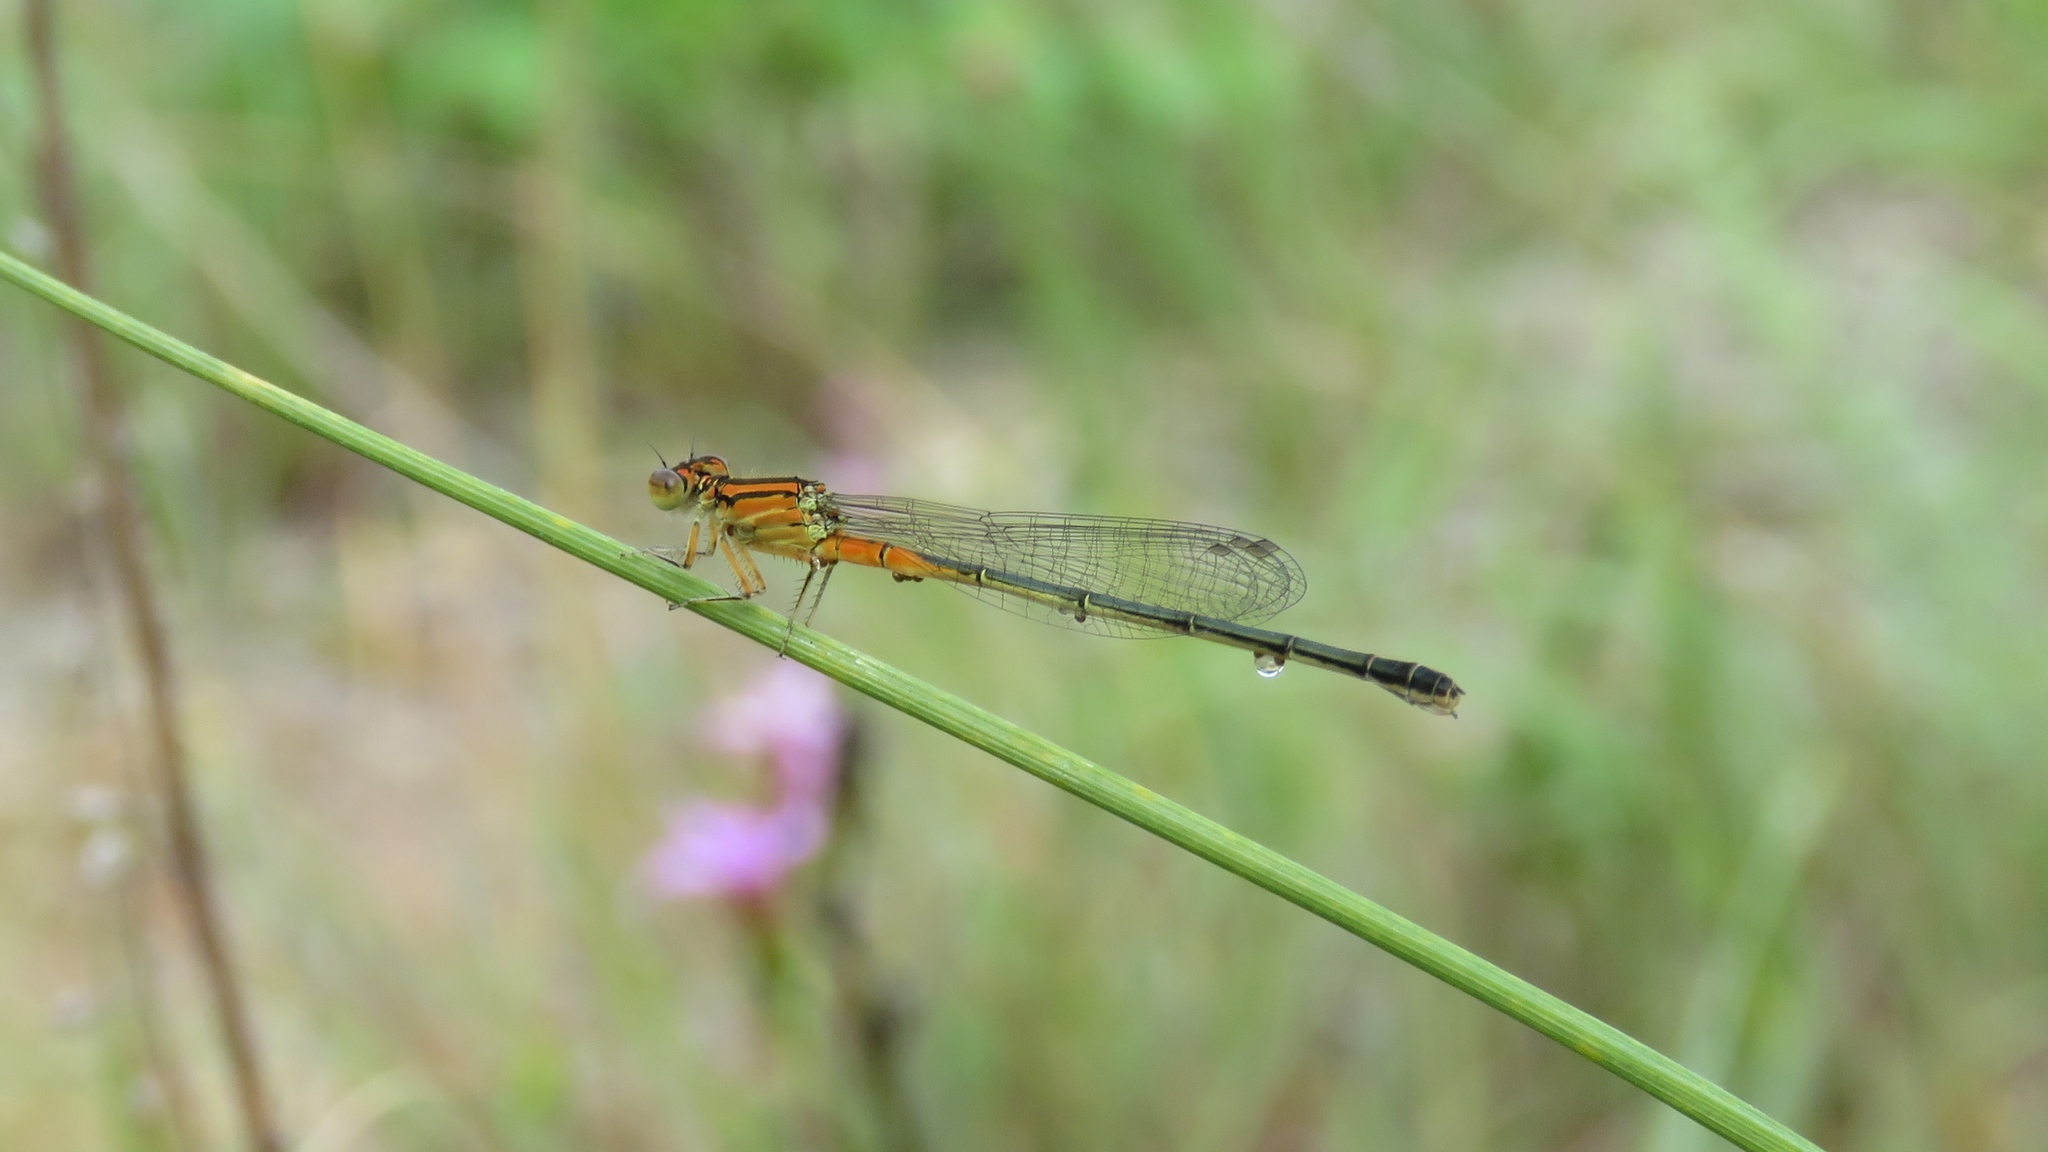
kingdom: Animalia
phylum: Arthropoda
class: Insecta
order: Odonata
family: Coenagrionidae
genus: Ischnura
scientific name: Ischnura verticalis
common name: Eastern forktail
